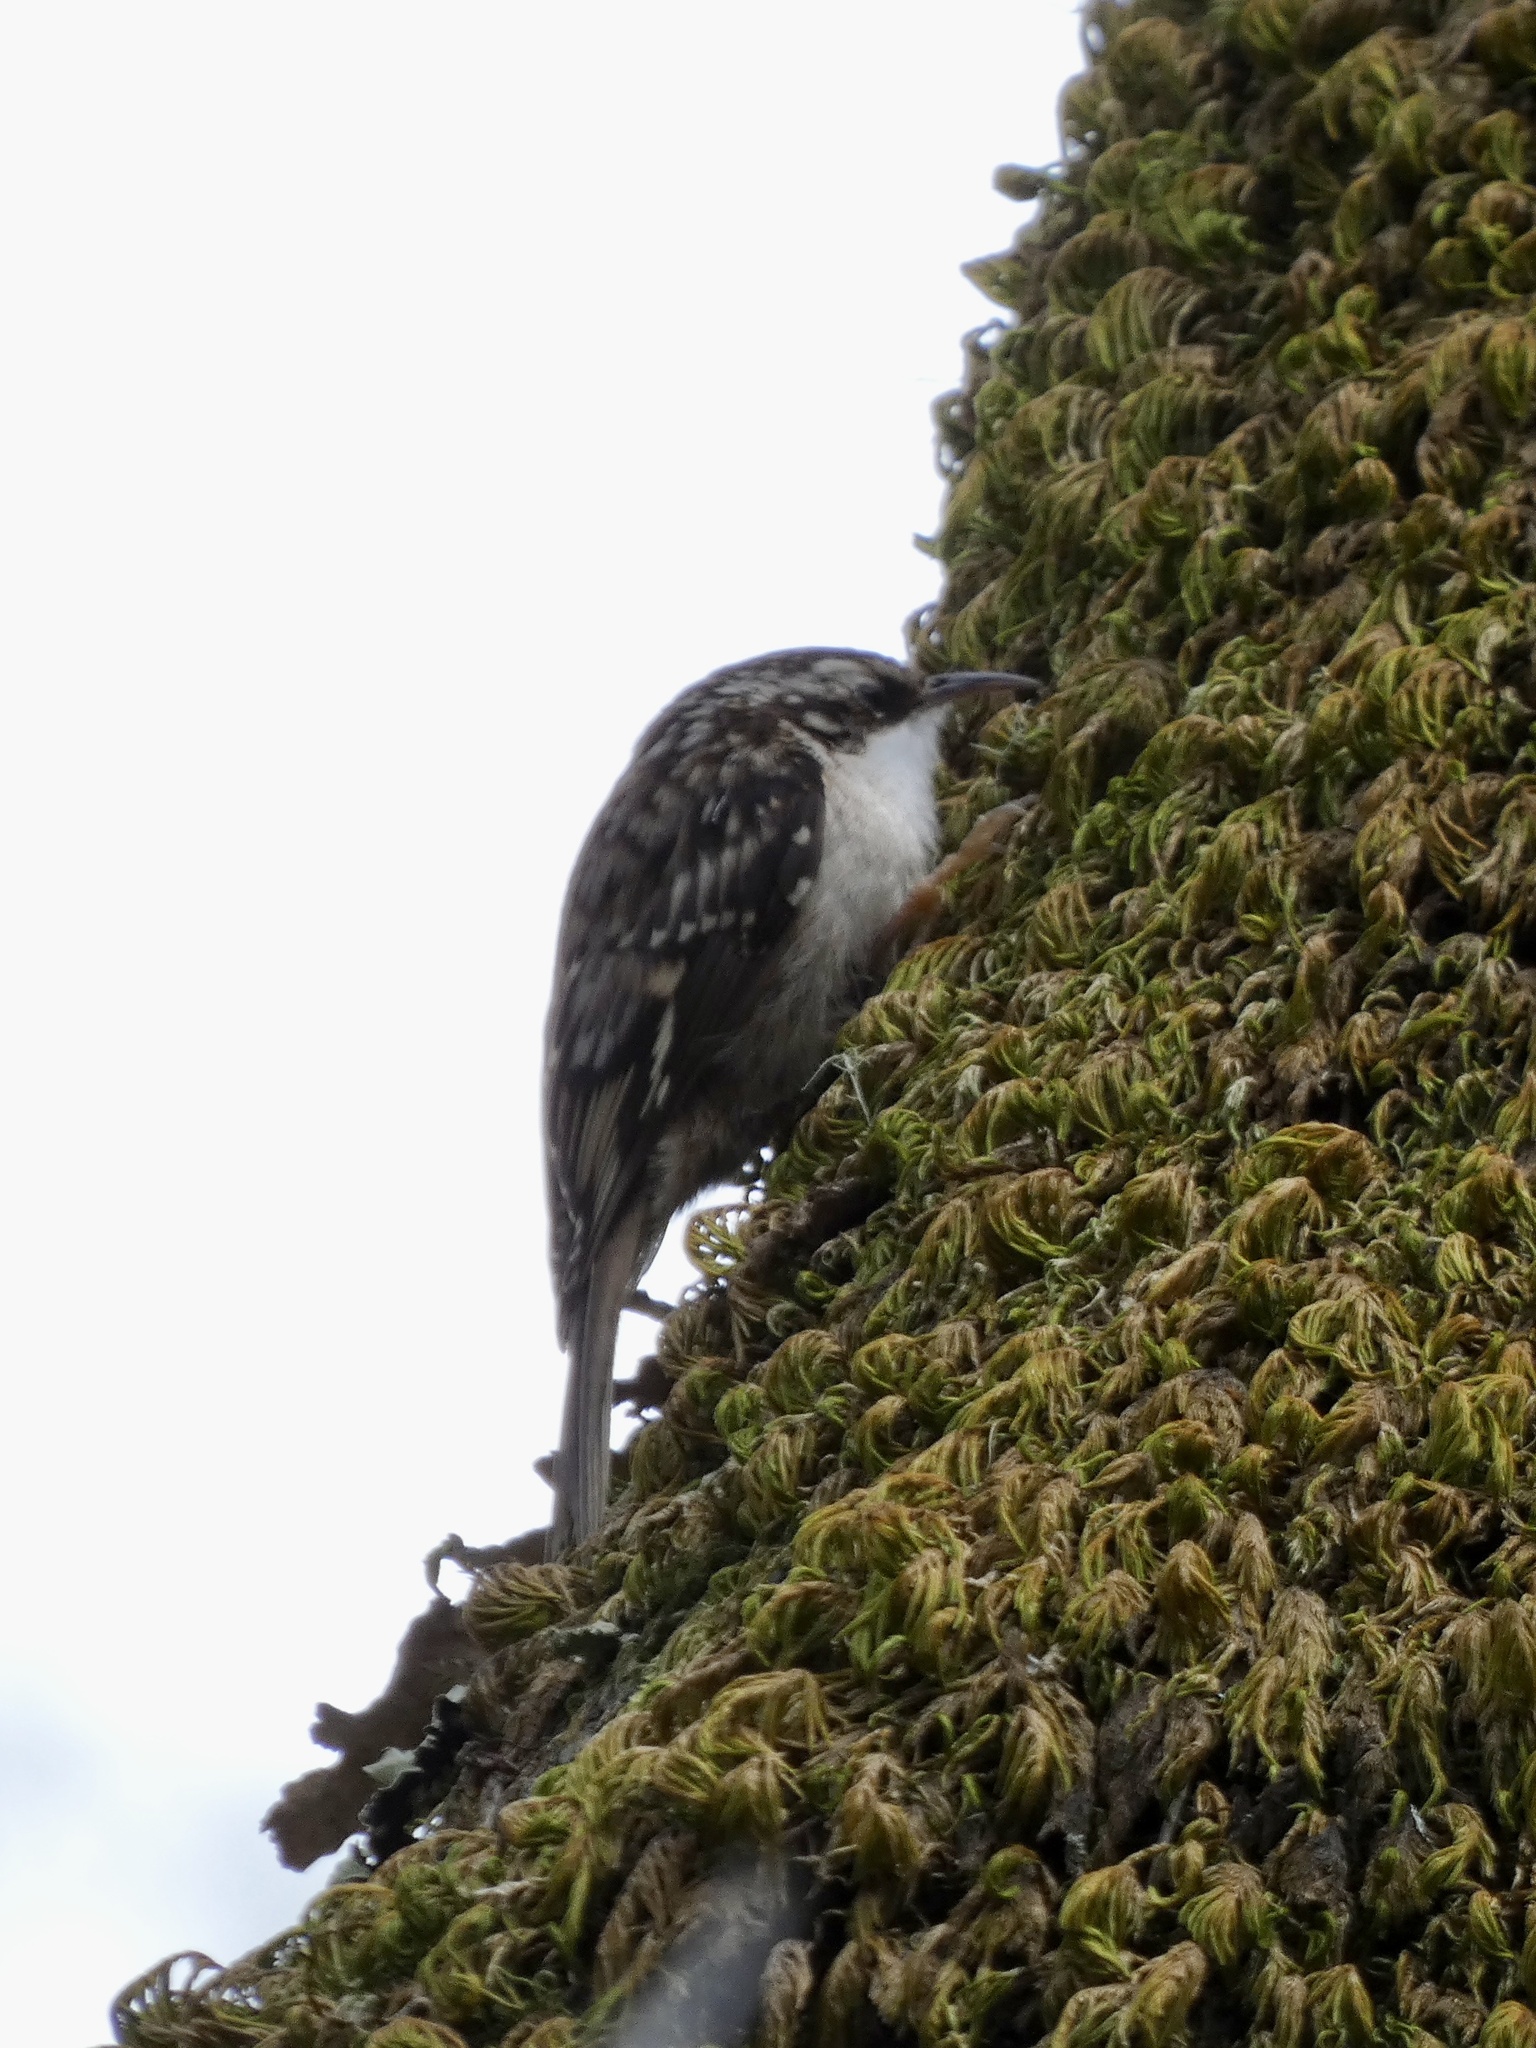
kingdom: Animalia
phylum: Chordata
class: Aves
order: Passeriformes
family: Certhiidae
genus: Certhia
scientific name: Certhia americana
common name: Brown creeper
